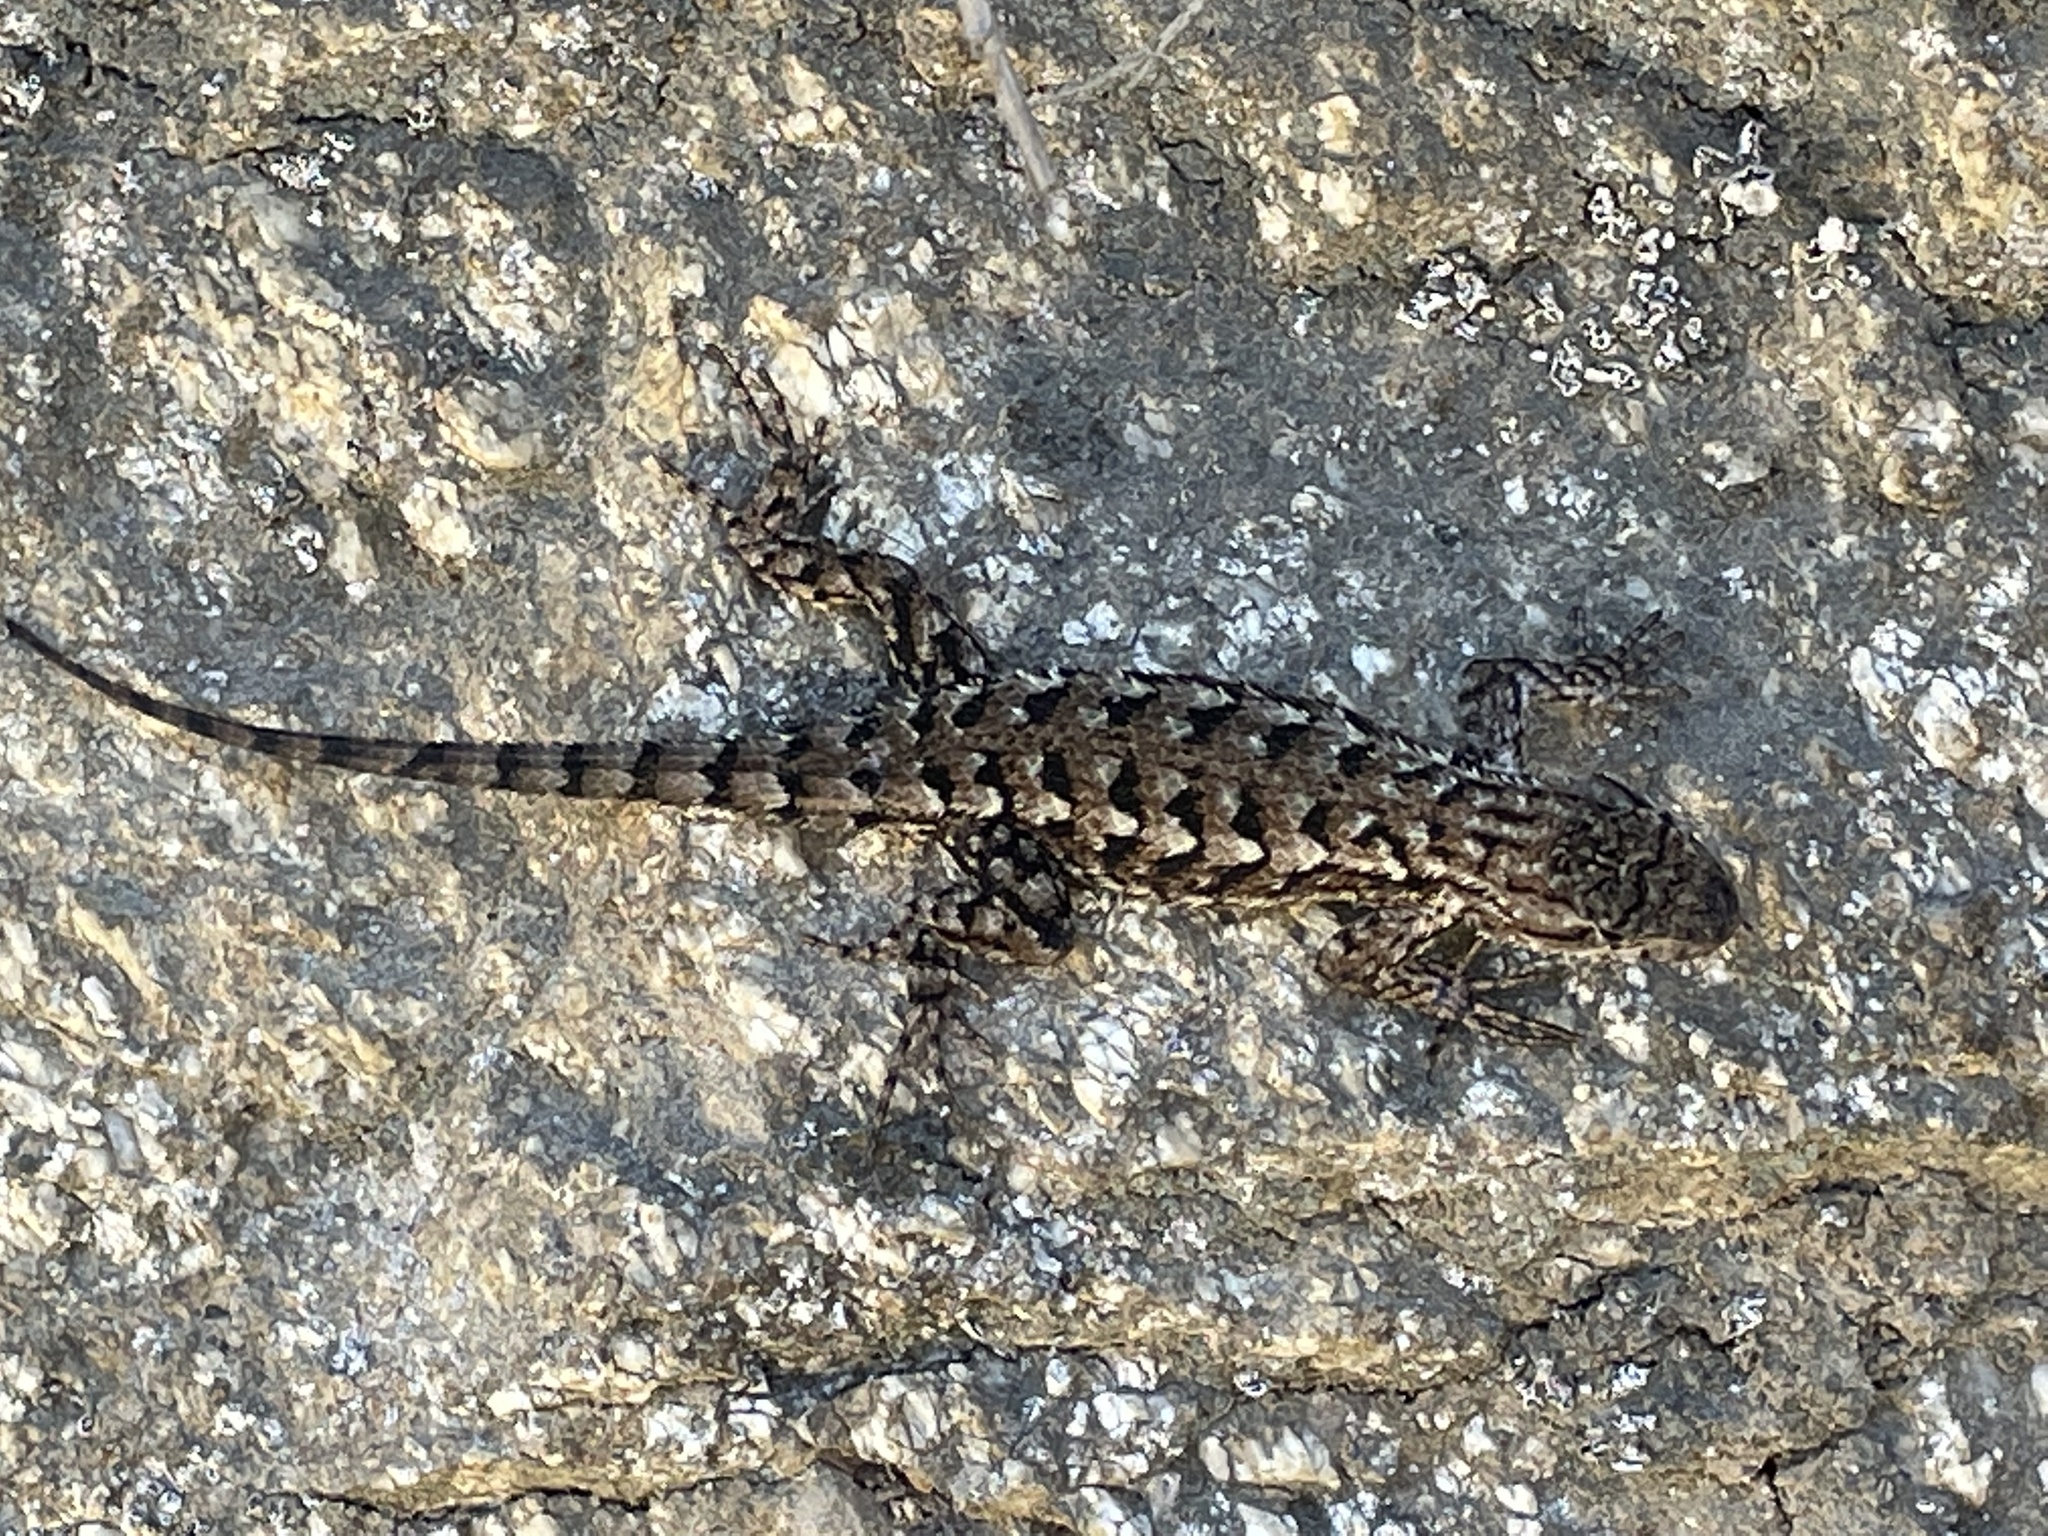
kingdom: Animalia
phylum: Chordata
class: Squamata
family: Phrynosomatidae
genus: Sceloporus
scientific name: Sceloporus occidentalis
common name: Western fence lizard
